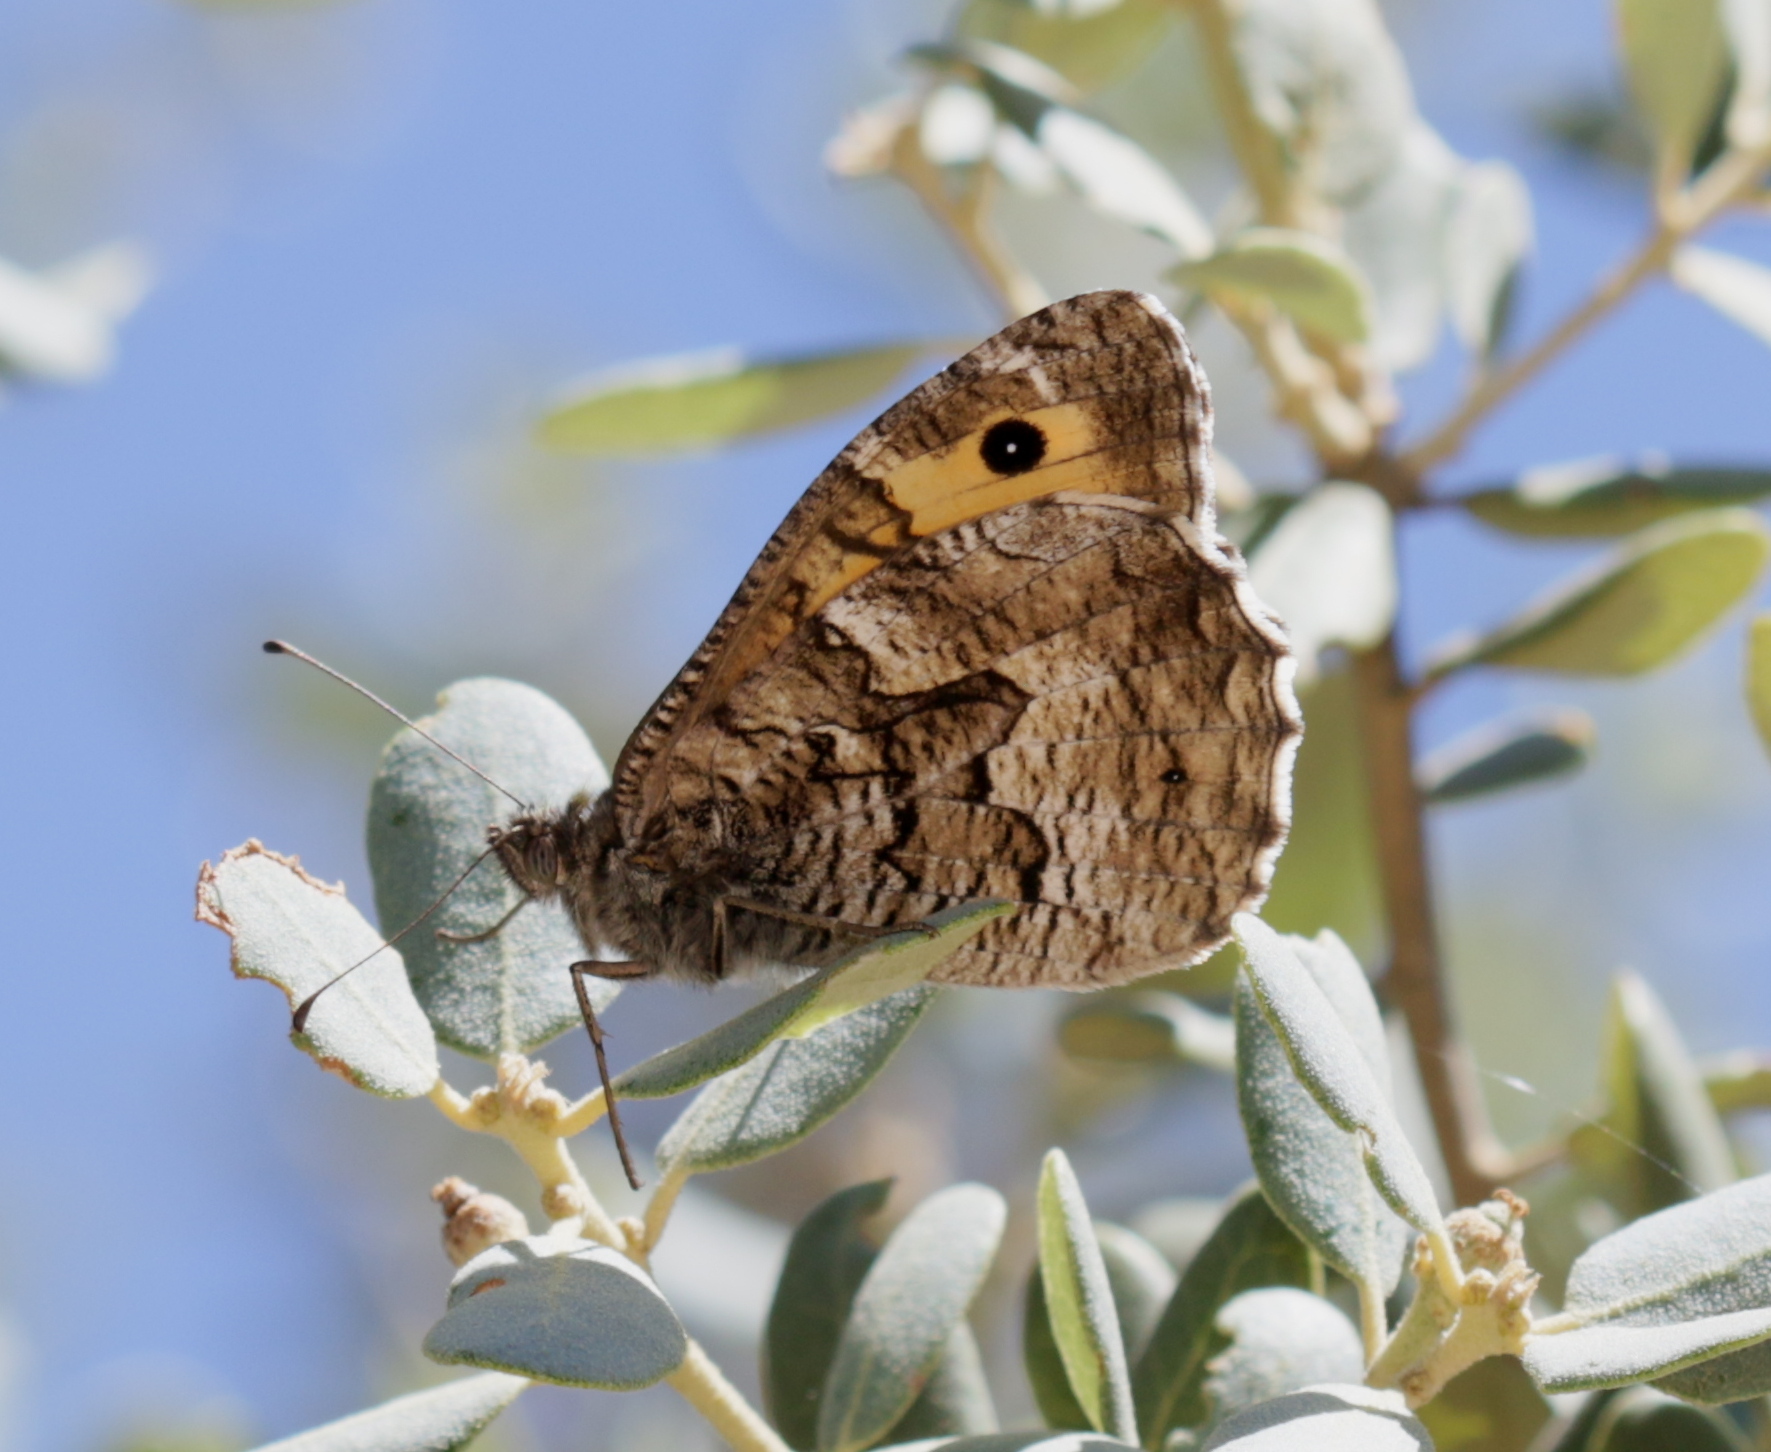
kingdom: Animalia
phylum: Arthropoda
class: Insecta
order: Lepidoptera
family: Nymphalidae
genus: Hipparchia
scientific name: Hipparchia semele
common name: Grayling
